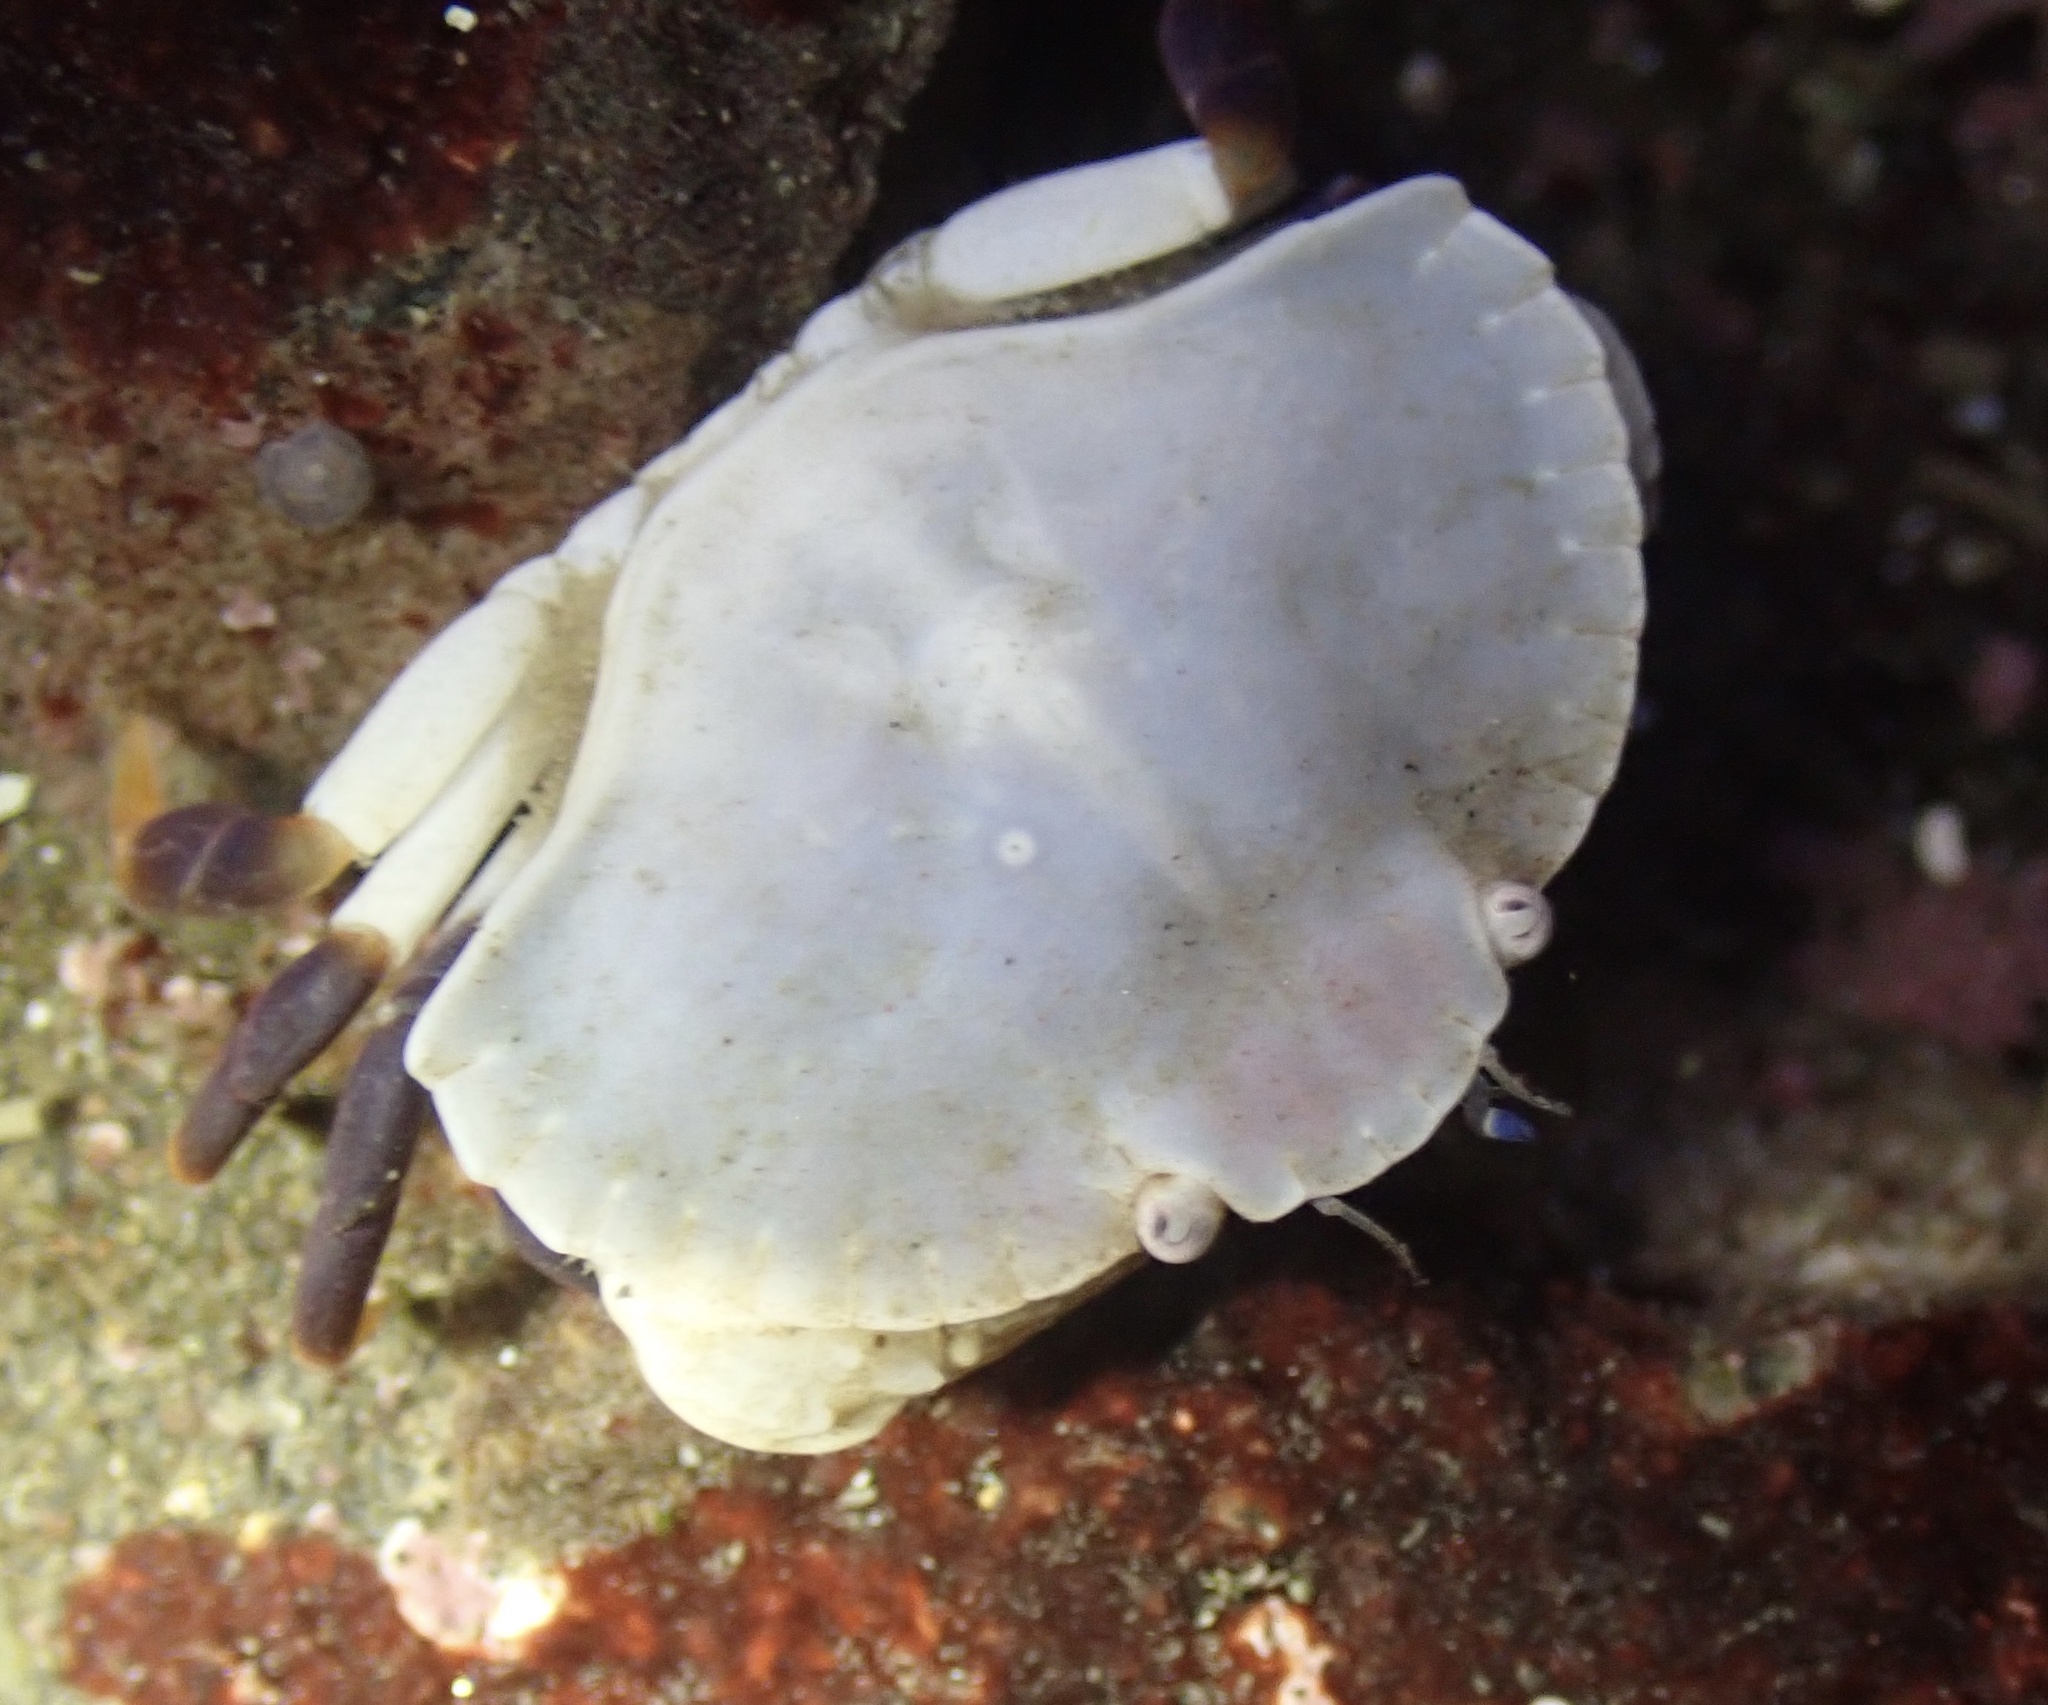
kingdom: Animalia
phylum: Arthropoda
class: Malacostraca
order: Decapoda
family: Cancridae
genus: Cancer
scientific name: Cancer productus
